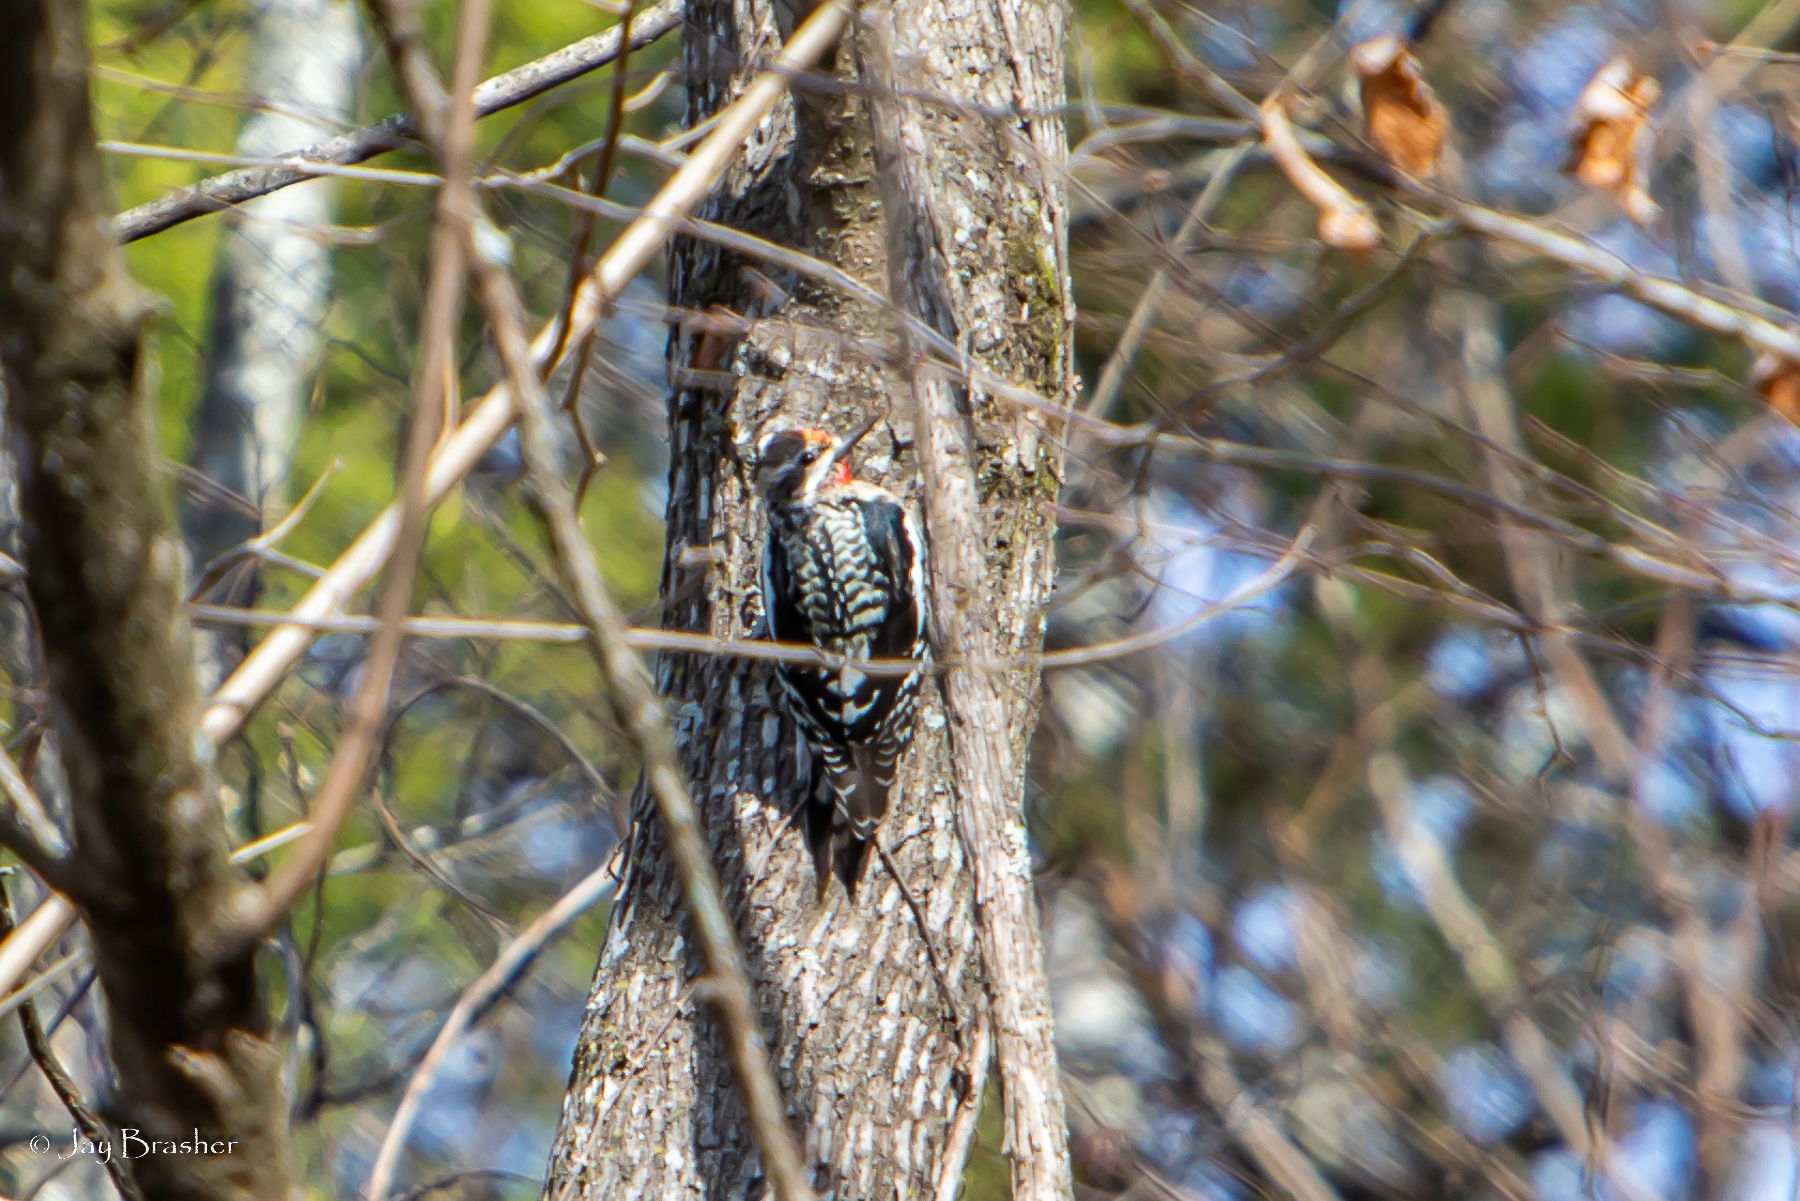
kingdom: Animalia
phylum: Chordata
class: Aves
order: Piciformes
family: Picidae
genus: Sphyrapicus
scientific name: Sphyrapicus varius
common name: Yellow-bellied sapsucker
